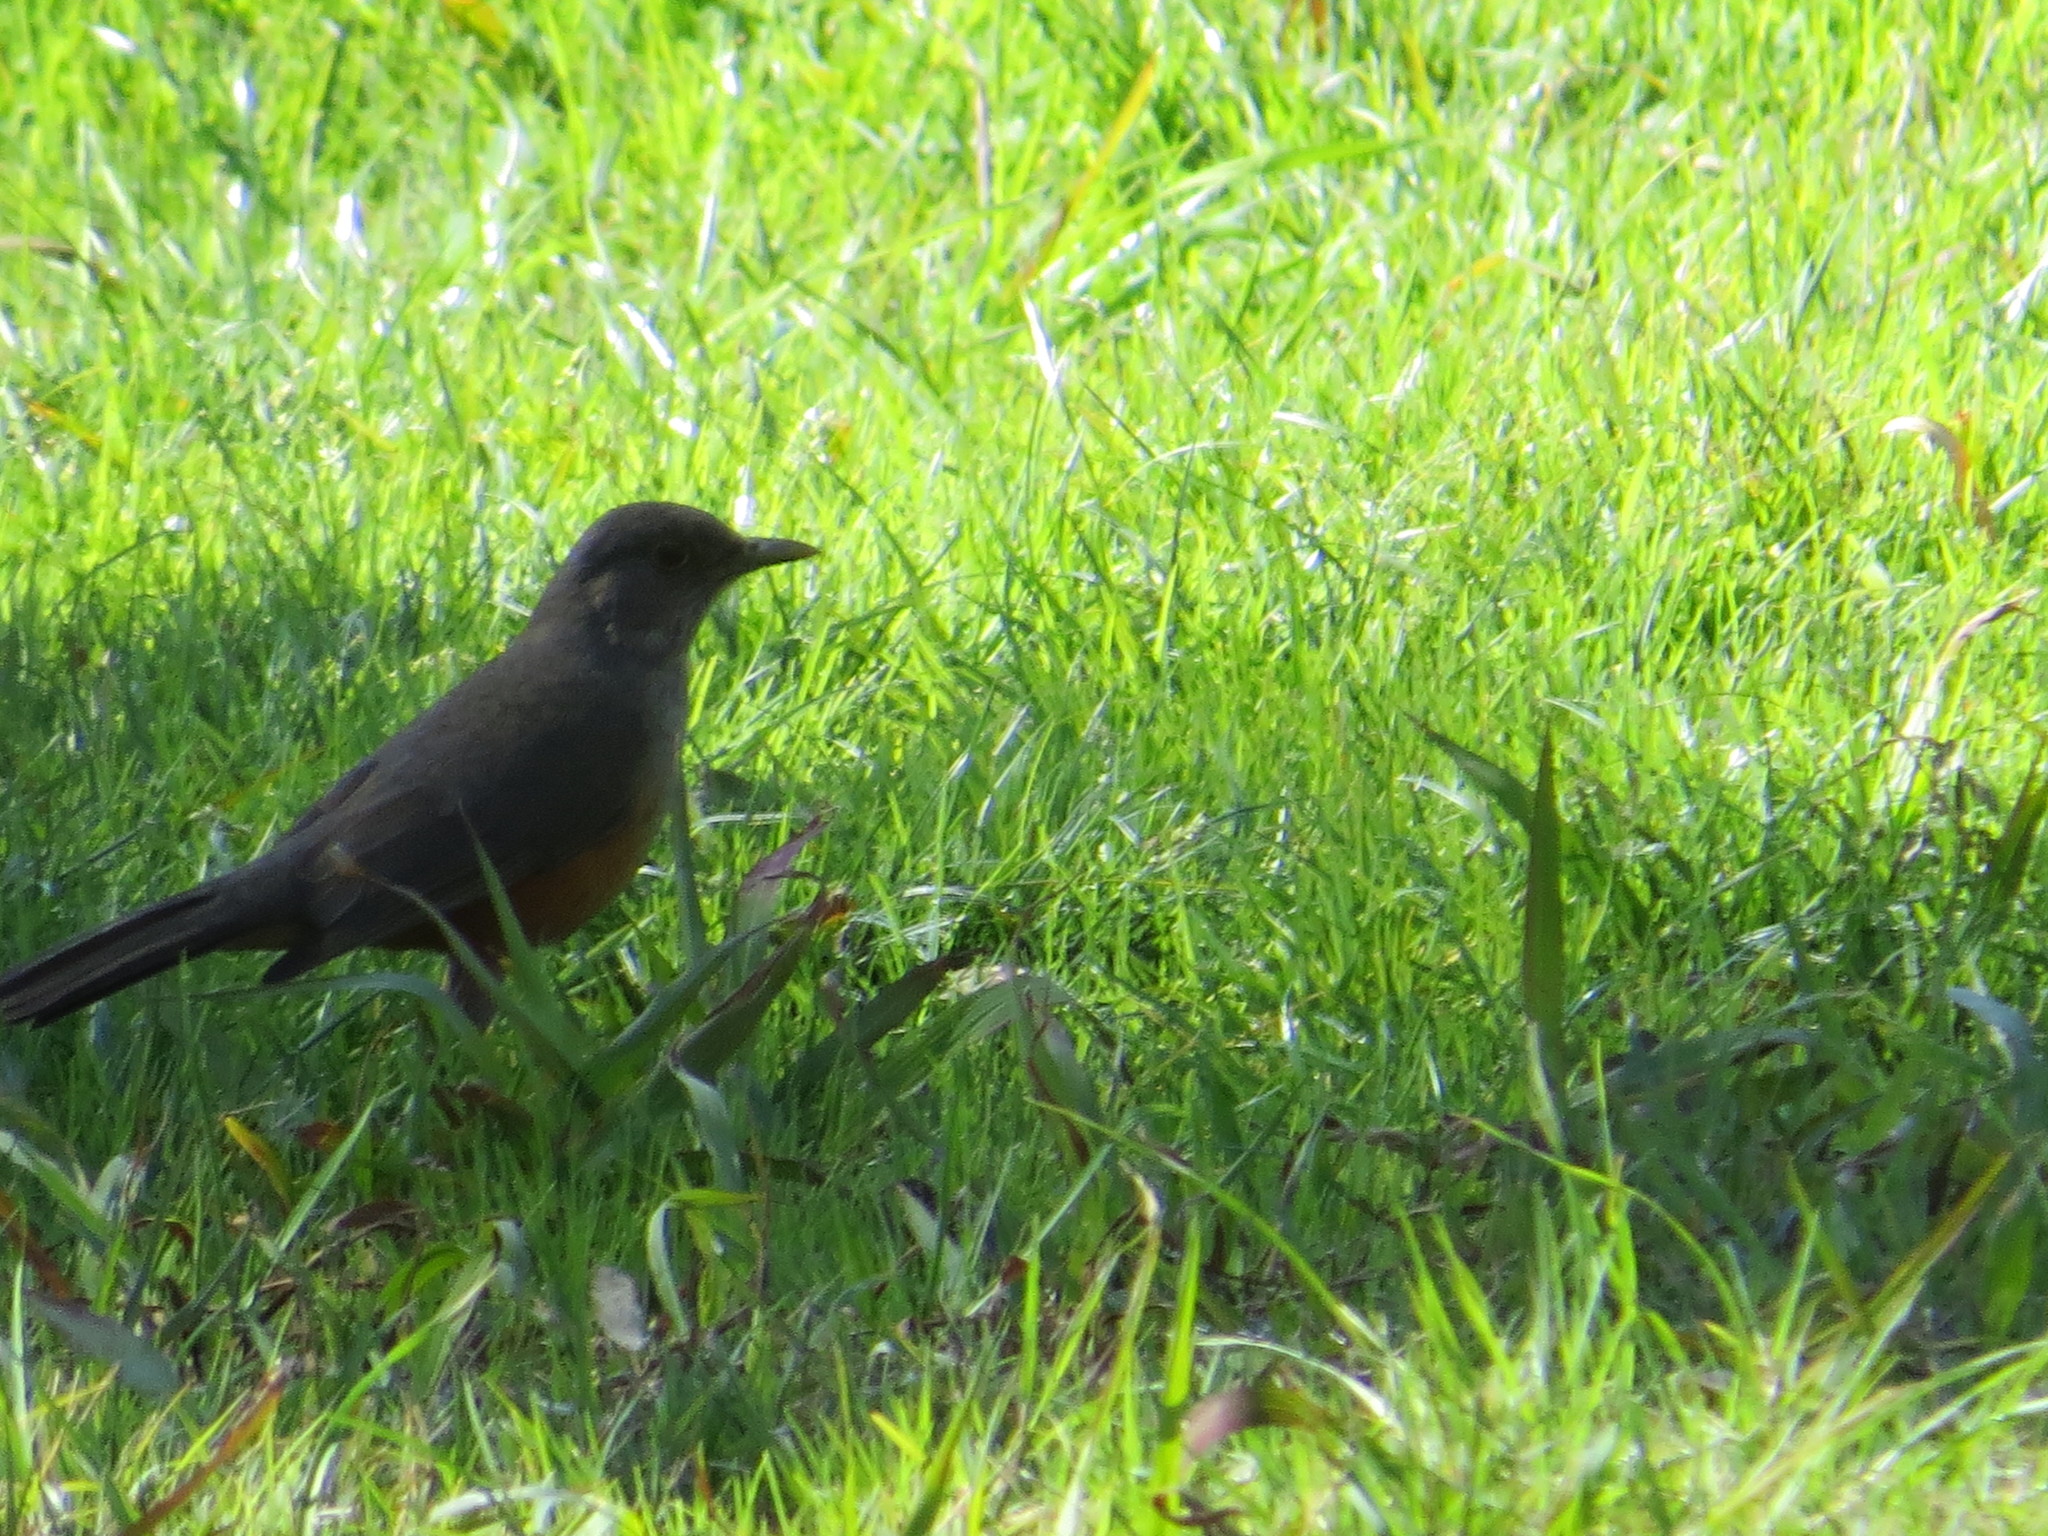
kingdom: Animalia
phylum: Chordata
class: Aves
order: Passeriformes
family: Turdidae
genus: Turdus
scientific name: Turdus rufiventris
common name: Rufous-bellied thrush
